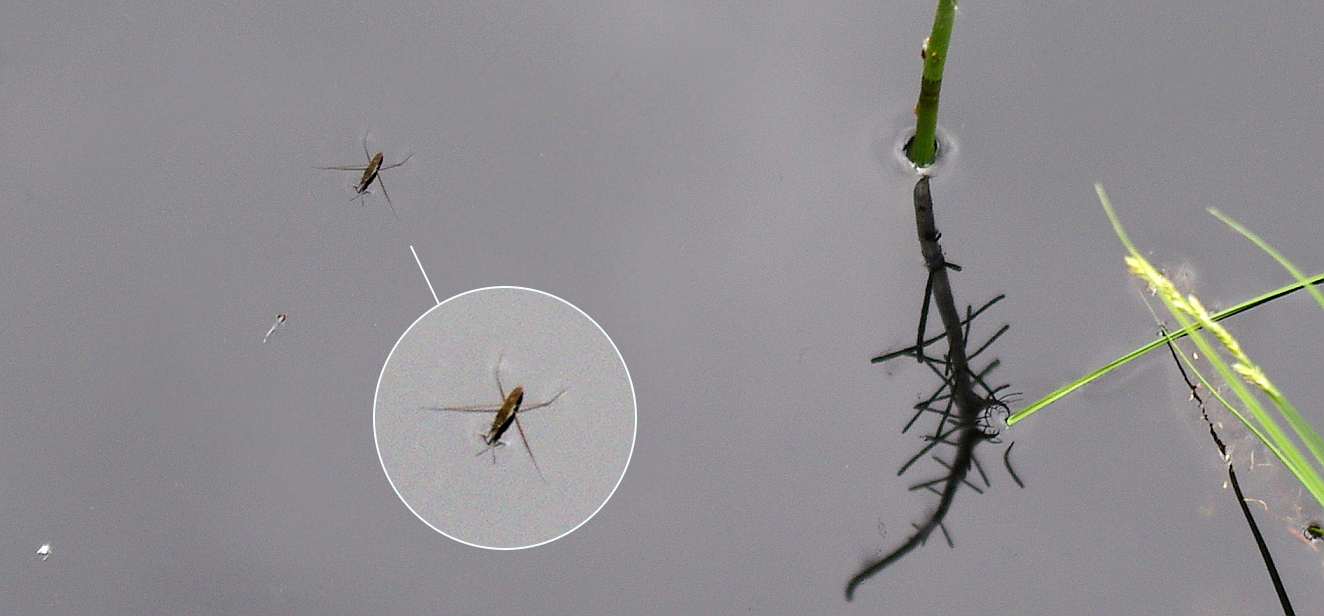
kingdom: Animalia
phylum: Arthropoda
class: Insecta
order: Hemiptera
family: Gerridae
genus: Gerris
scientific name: Gerris
